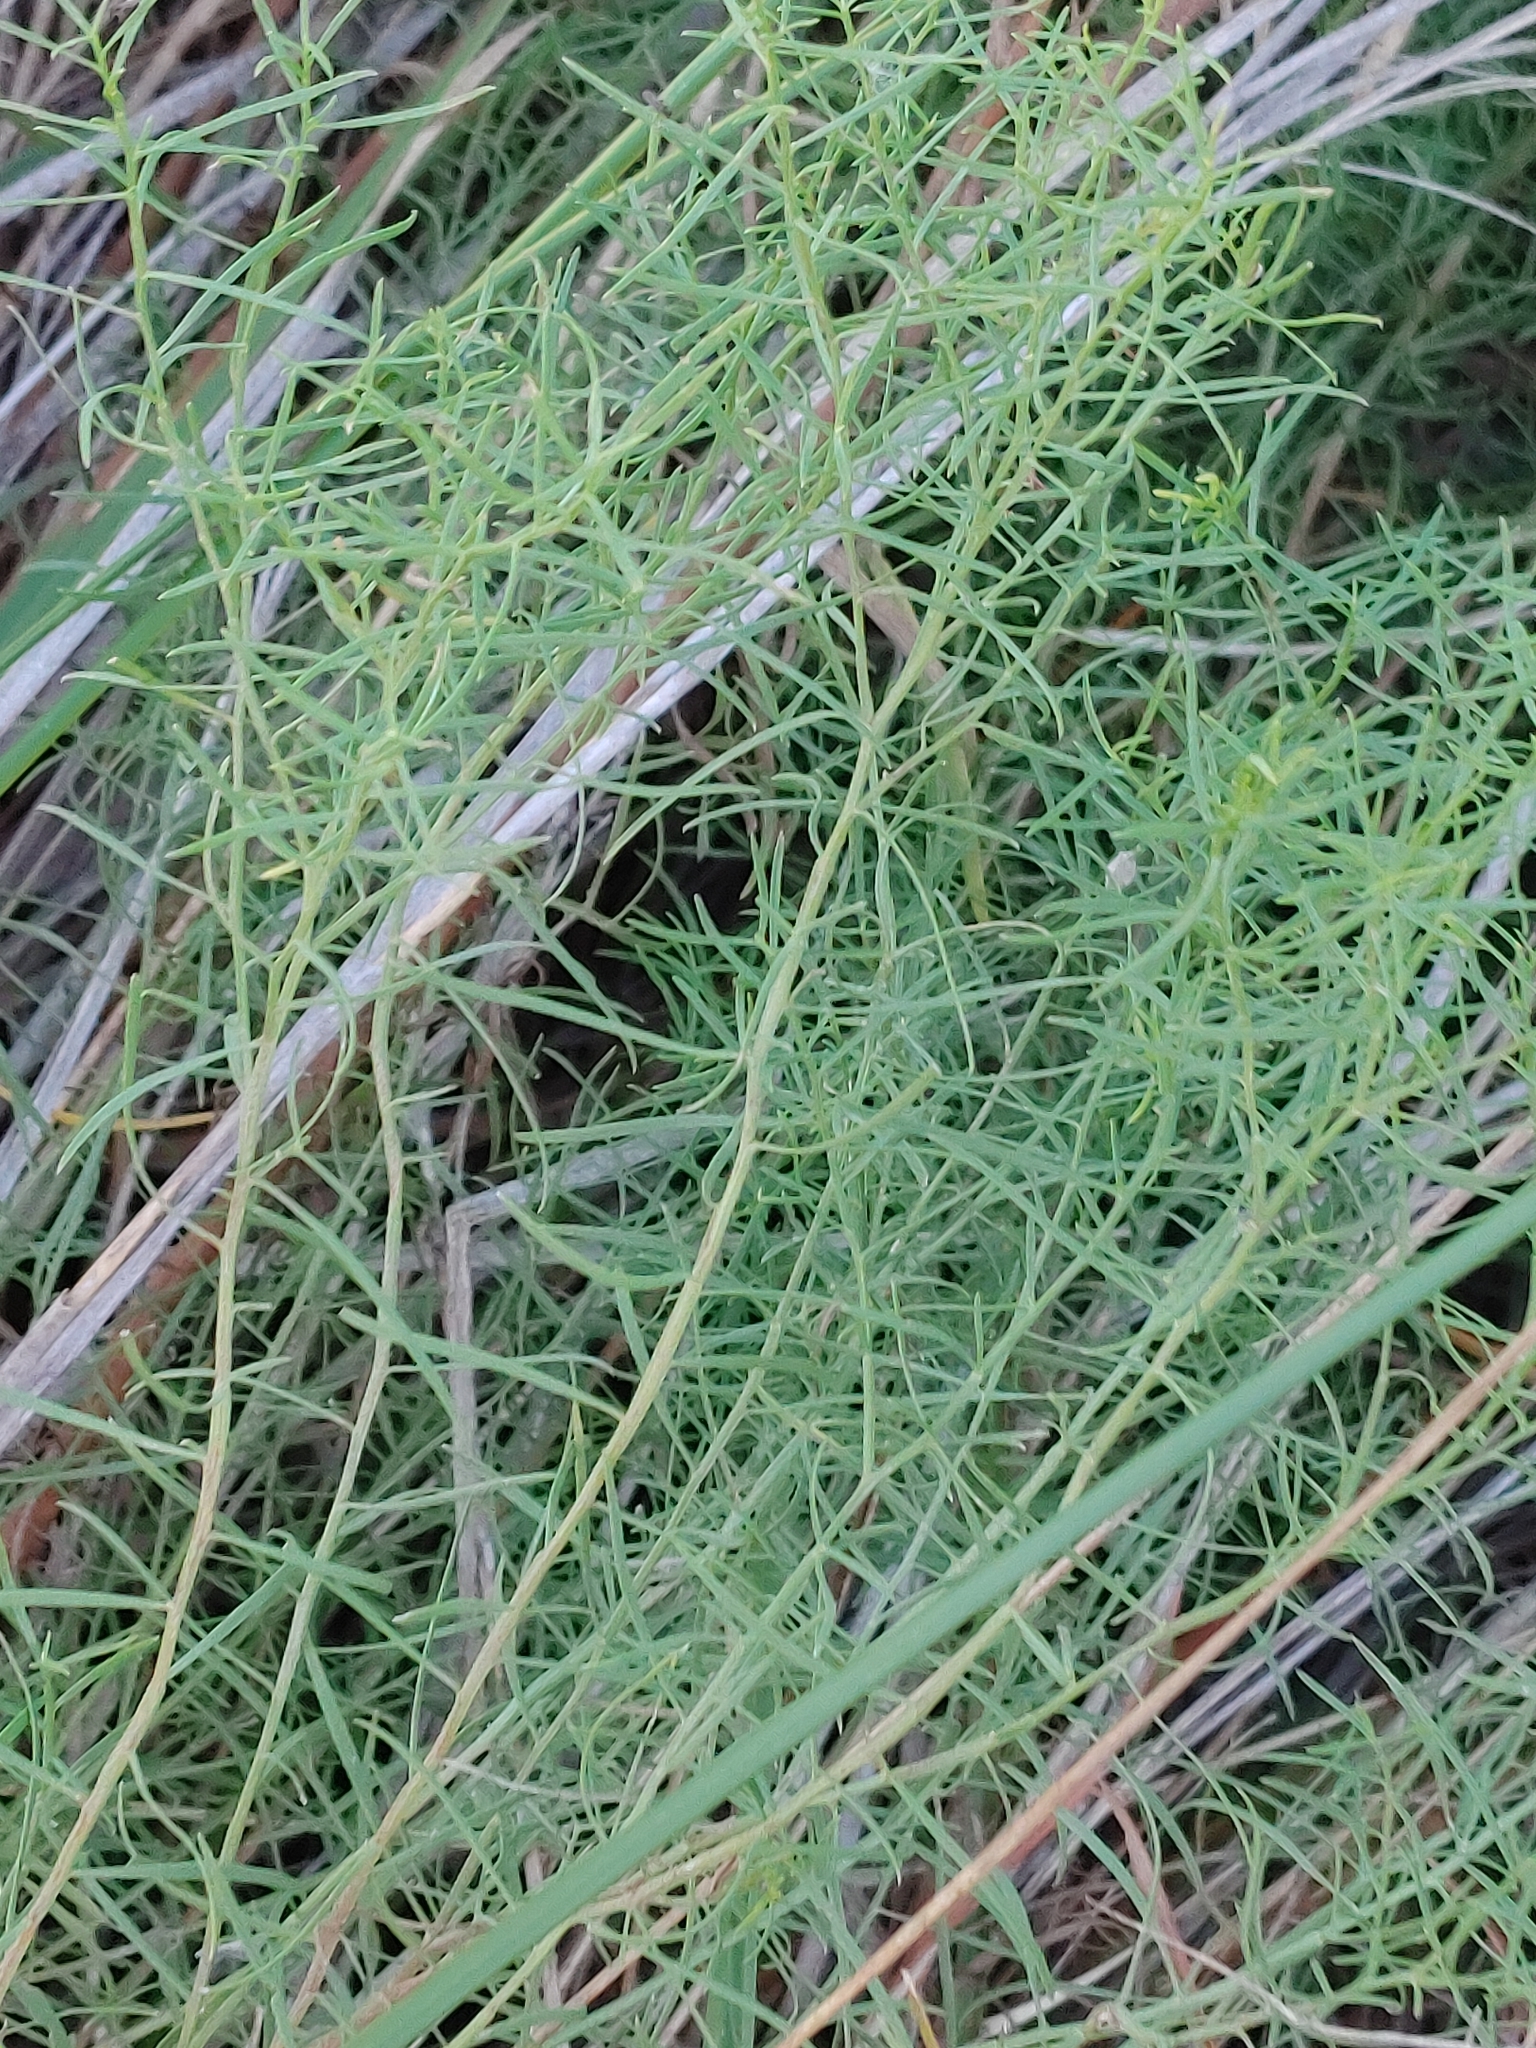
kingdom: Plantae
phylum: Tracheophyta
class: Magnoliopsida
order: Asterales
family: Asteraceae
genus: Euthamia
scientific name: Euthamia caroliniana
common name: Coastal plain goldentop
